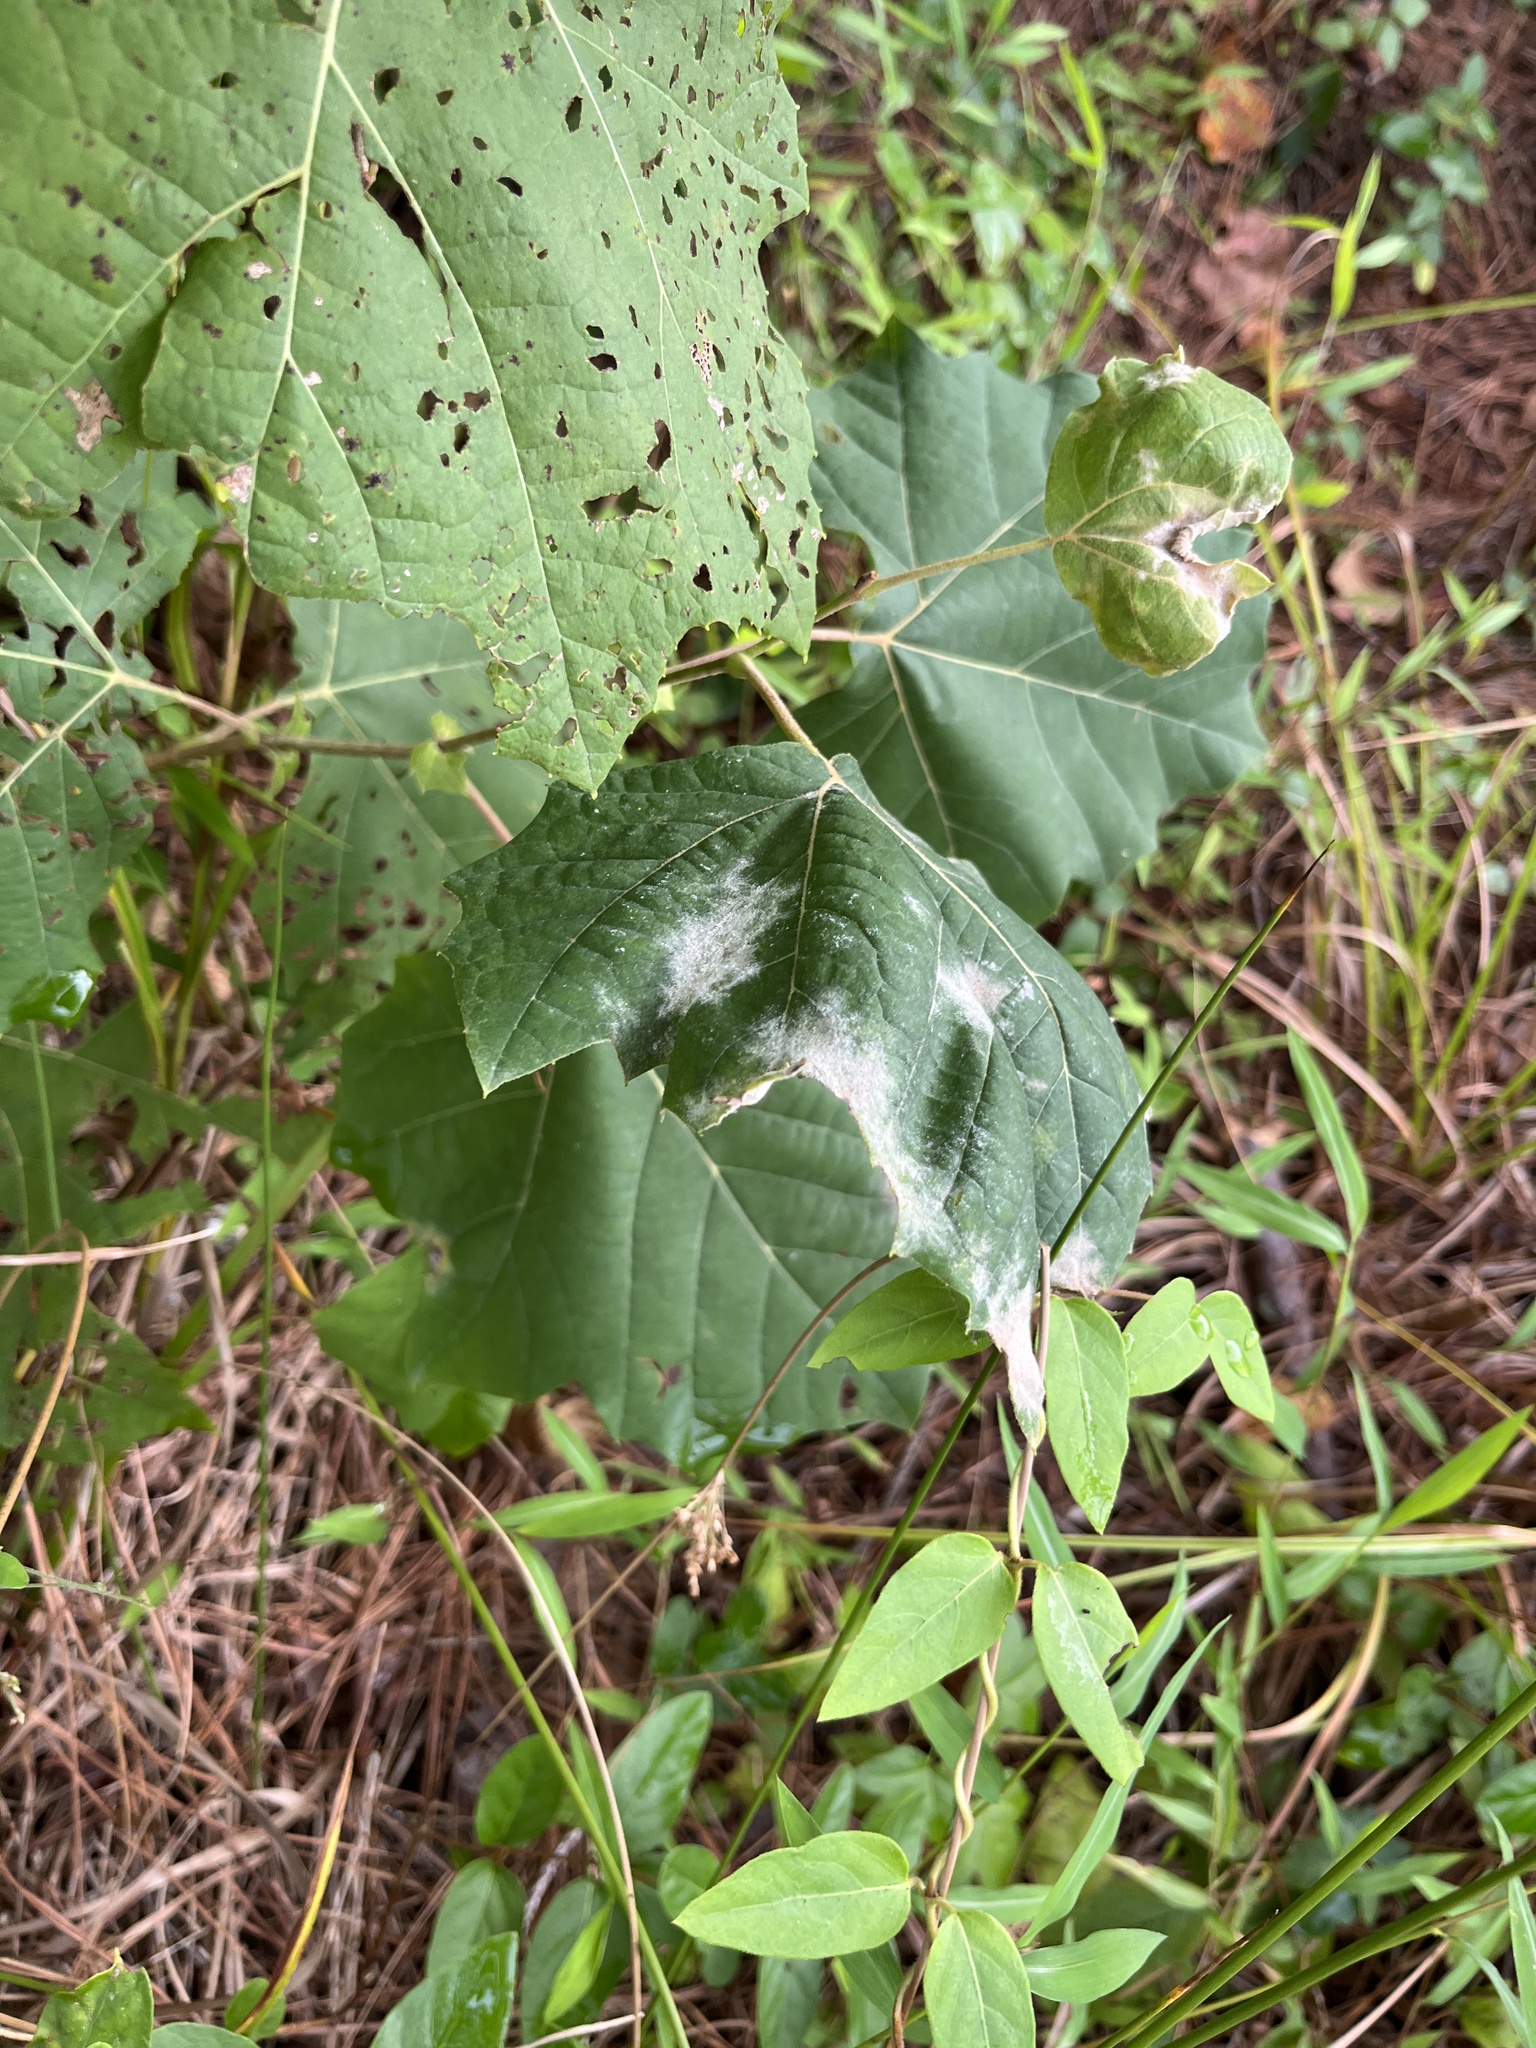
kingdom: Fungi
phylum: Ascomycota
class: Leotiomycetes
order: Helotiales
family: Erysiphaceae
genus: Erysiphe
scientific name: Erysiphe platani
